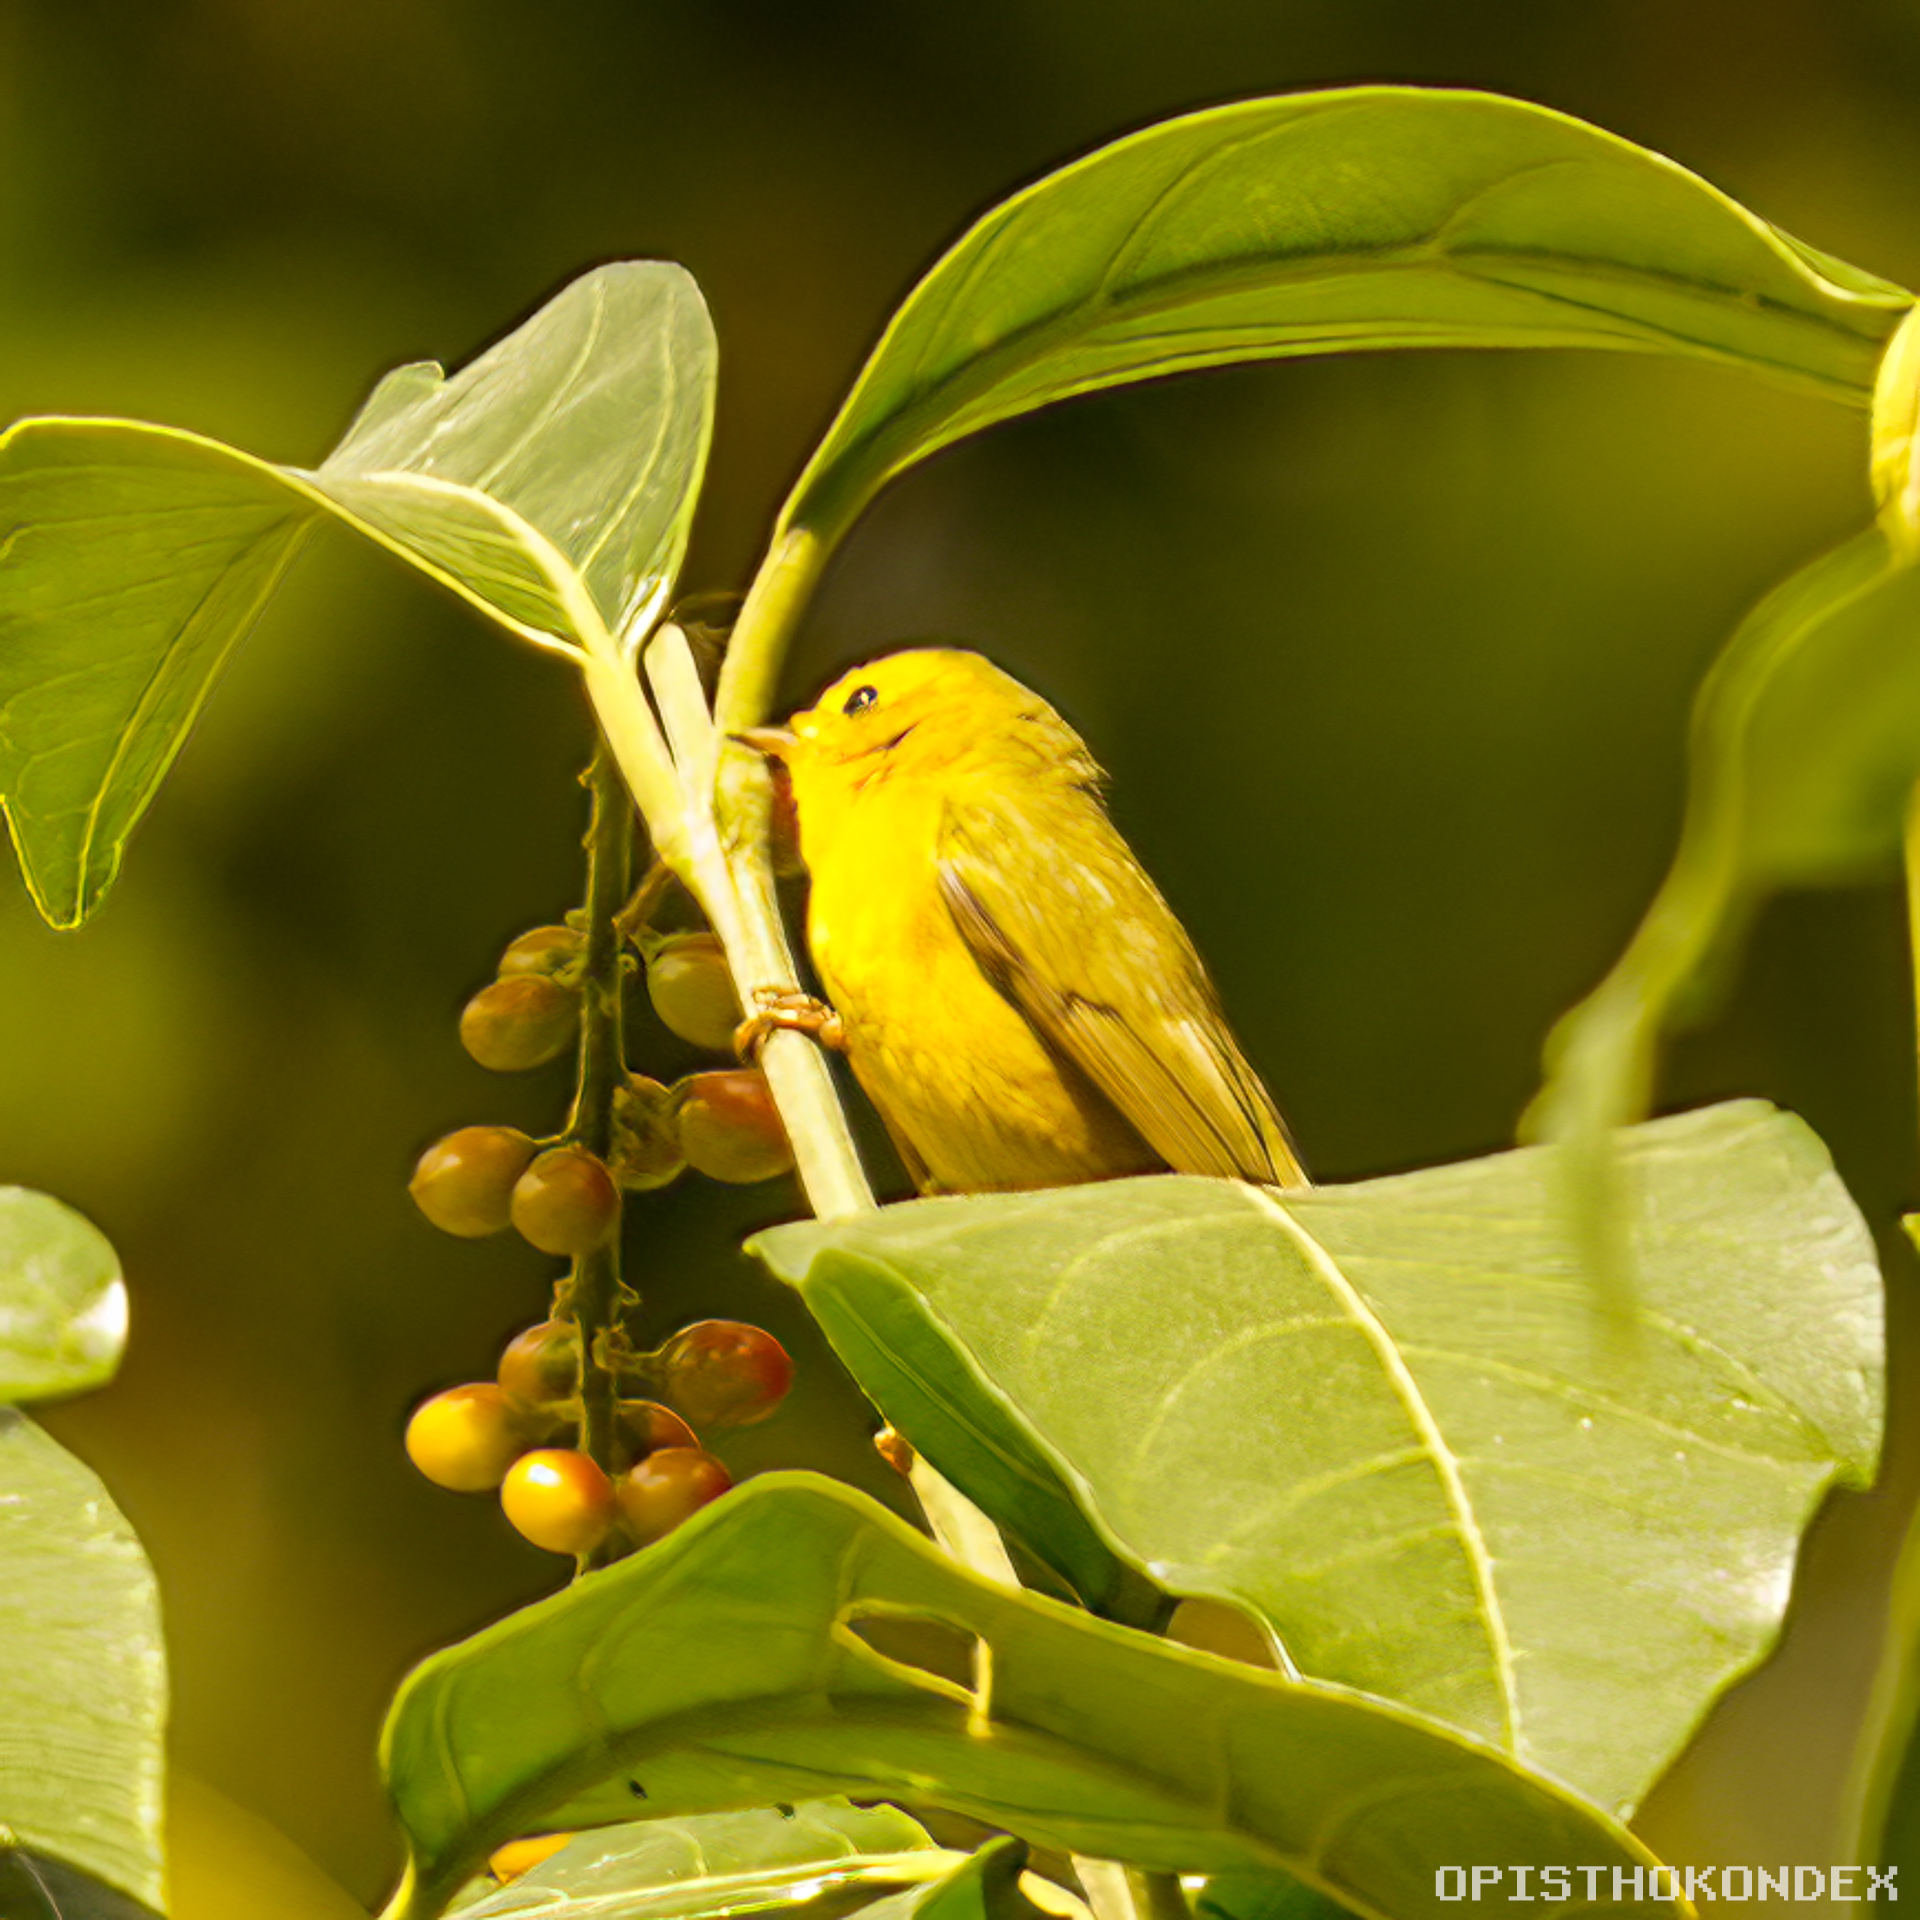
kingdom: Animalia
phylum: Chordata
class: Aves
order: Passeriformes
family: Parulidae
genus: Setophaga
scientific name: Setophaga petechia
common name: Yellow warbler
